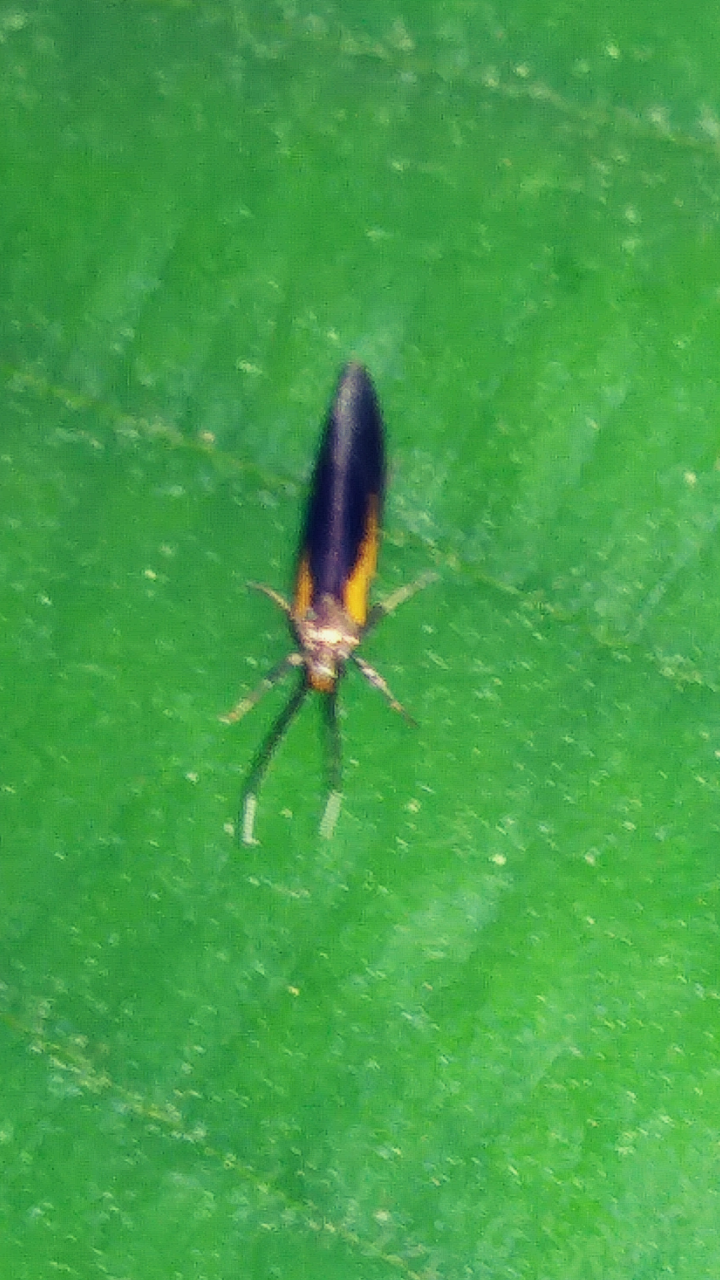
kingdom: Animalia
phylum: Arthropoda
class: Insecta
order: Lepidoptera
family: Oecophoridae
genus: Mathildana
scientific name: Mathildana newmanella
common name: Newman's mathildana moth
